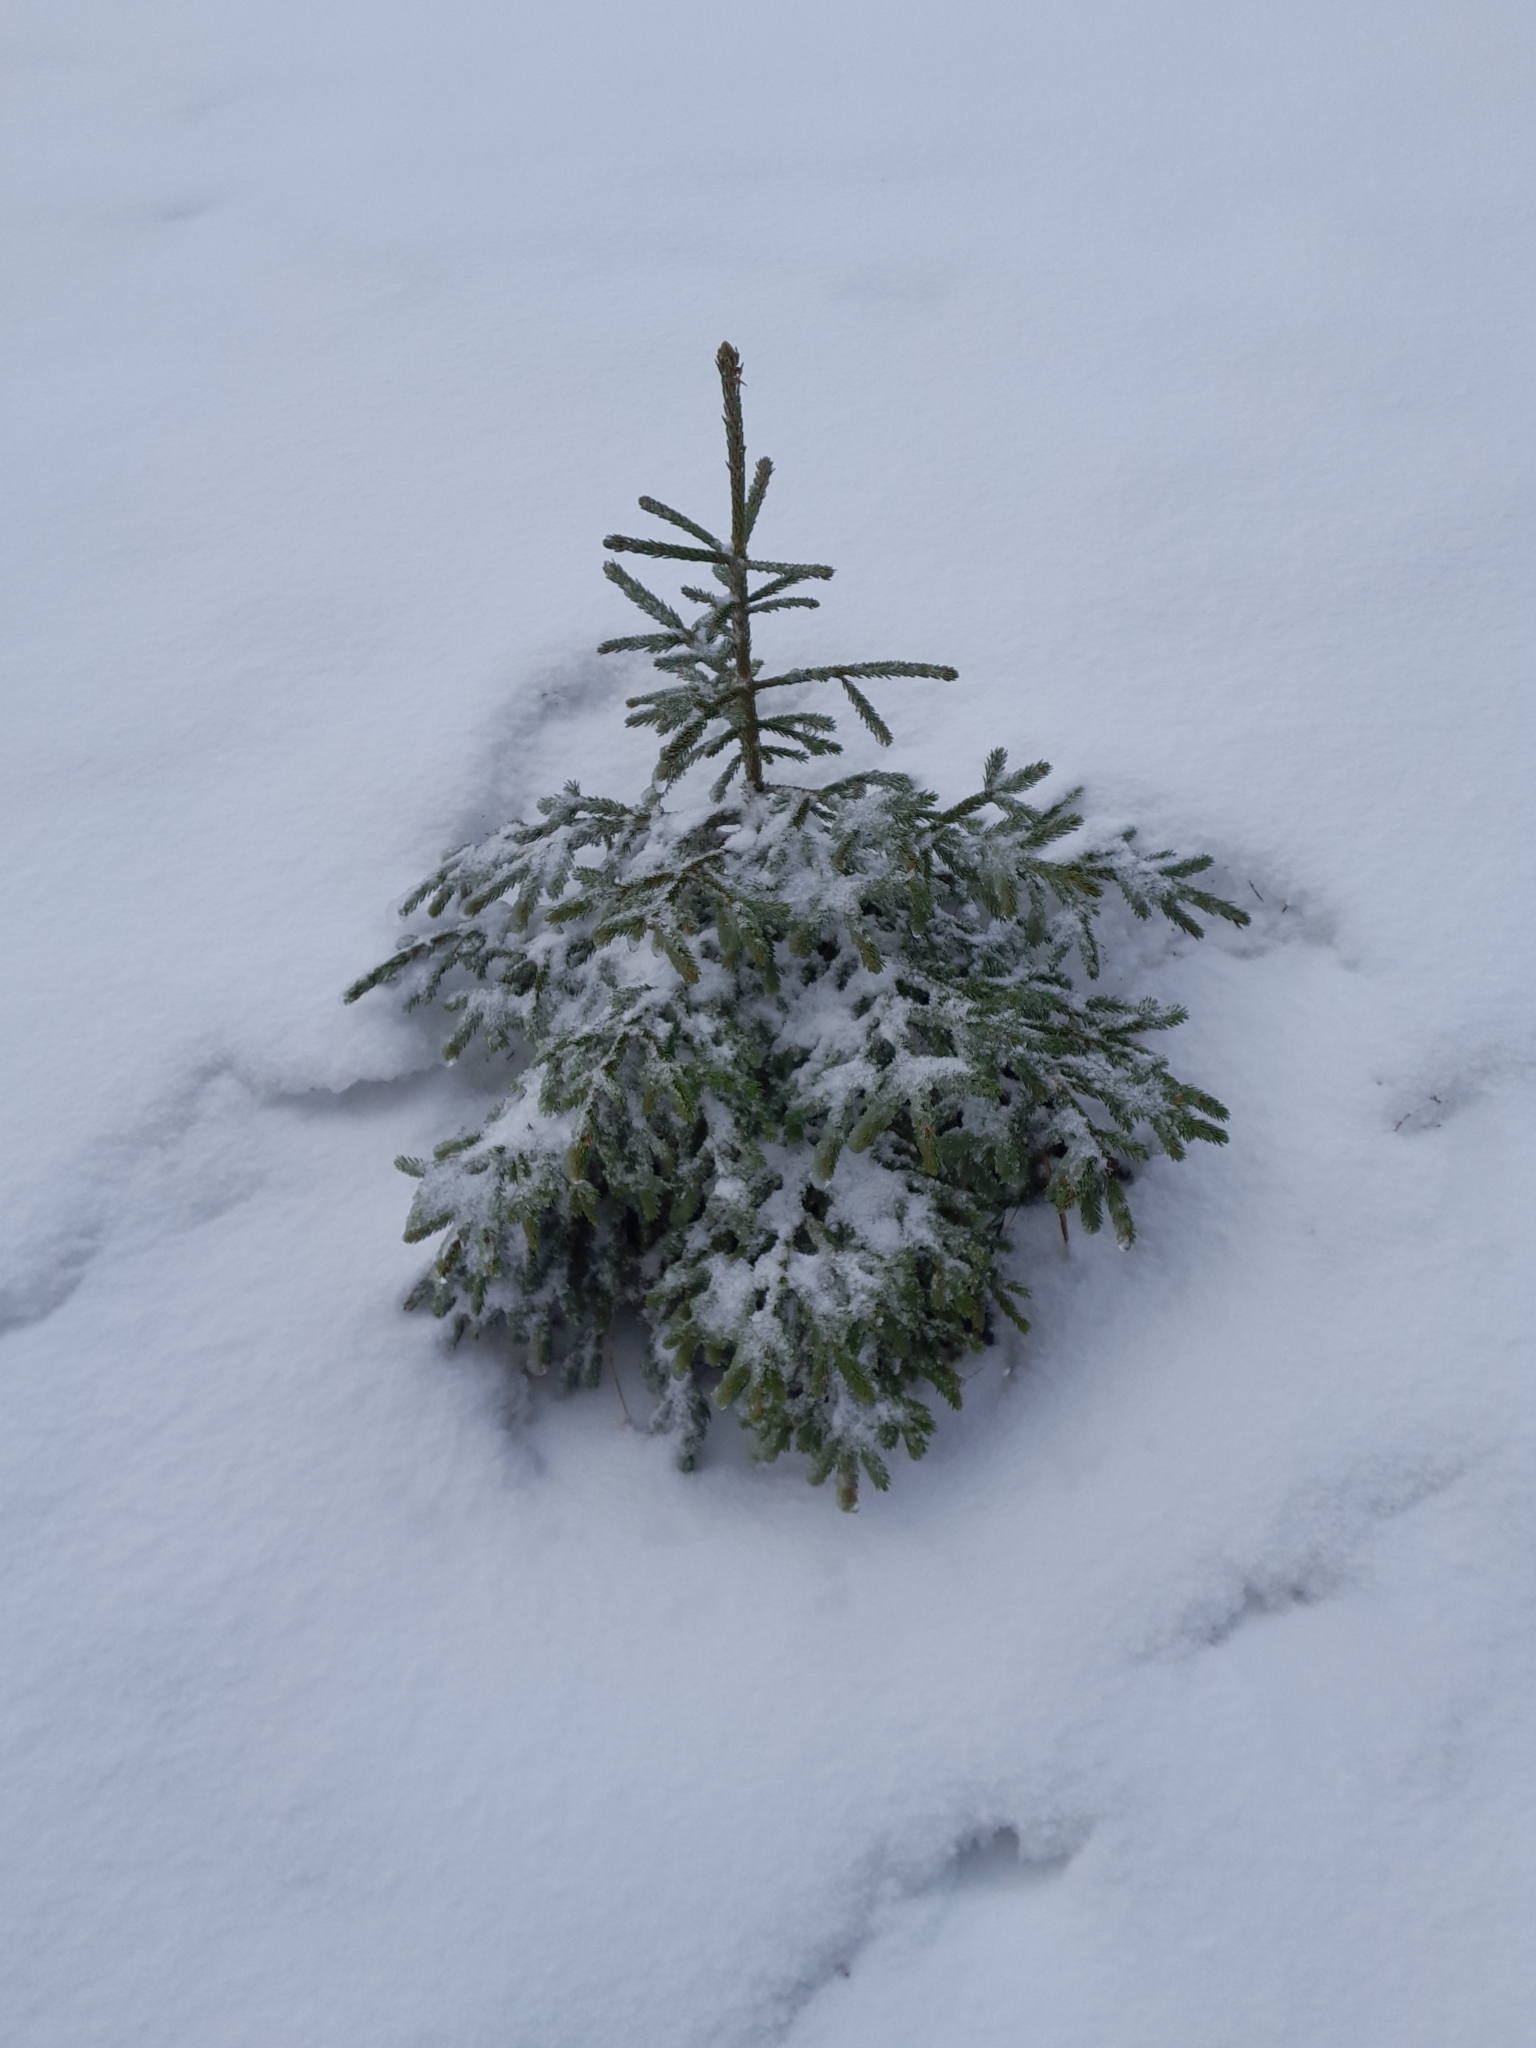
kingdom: Plantae
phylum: Tracheophyta
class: Pinopsida
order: Pinales
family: Pinaceae
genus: Picea
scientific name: Picea abies
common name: Norway spruce
